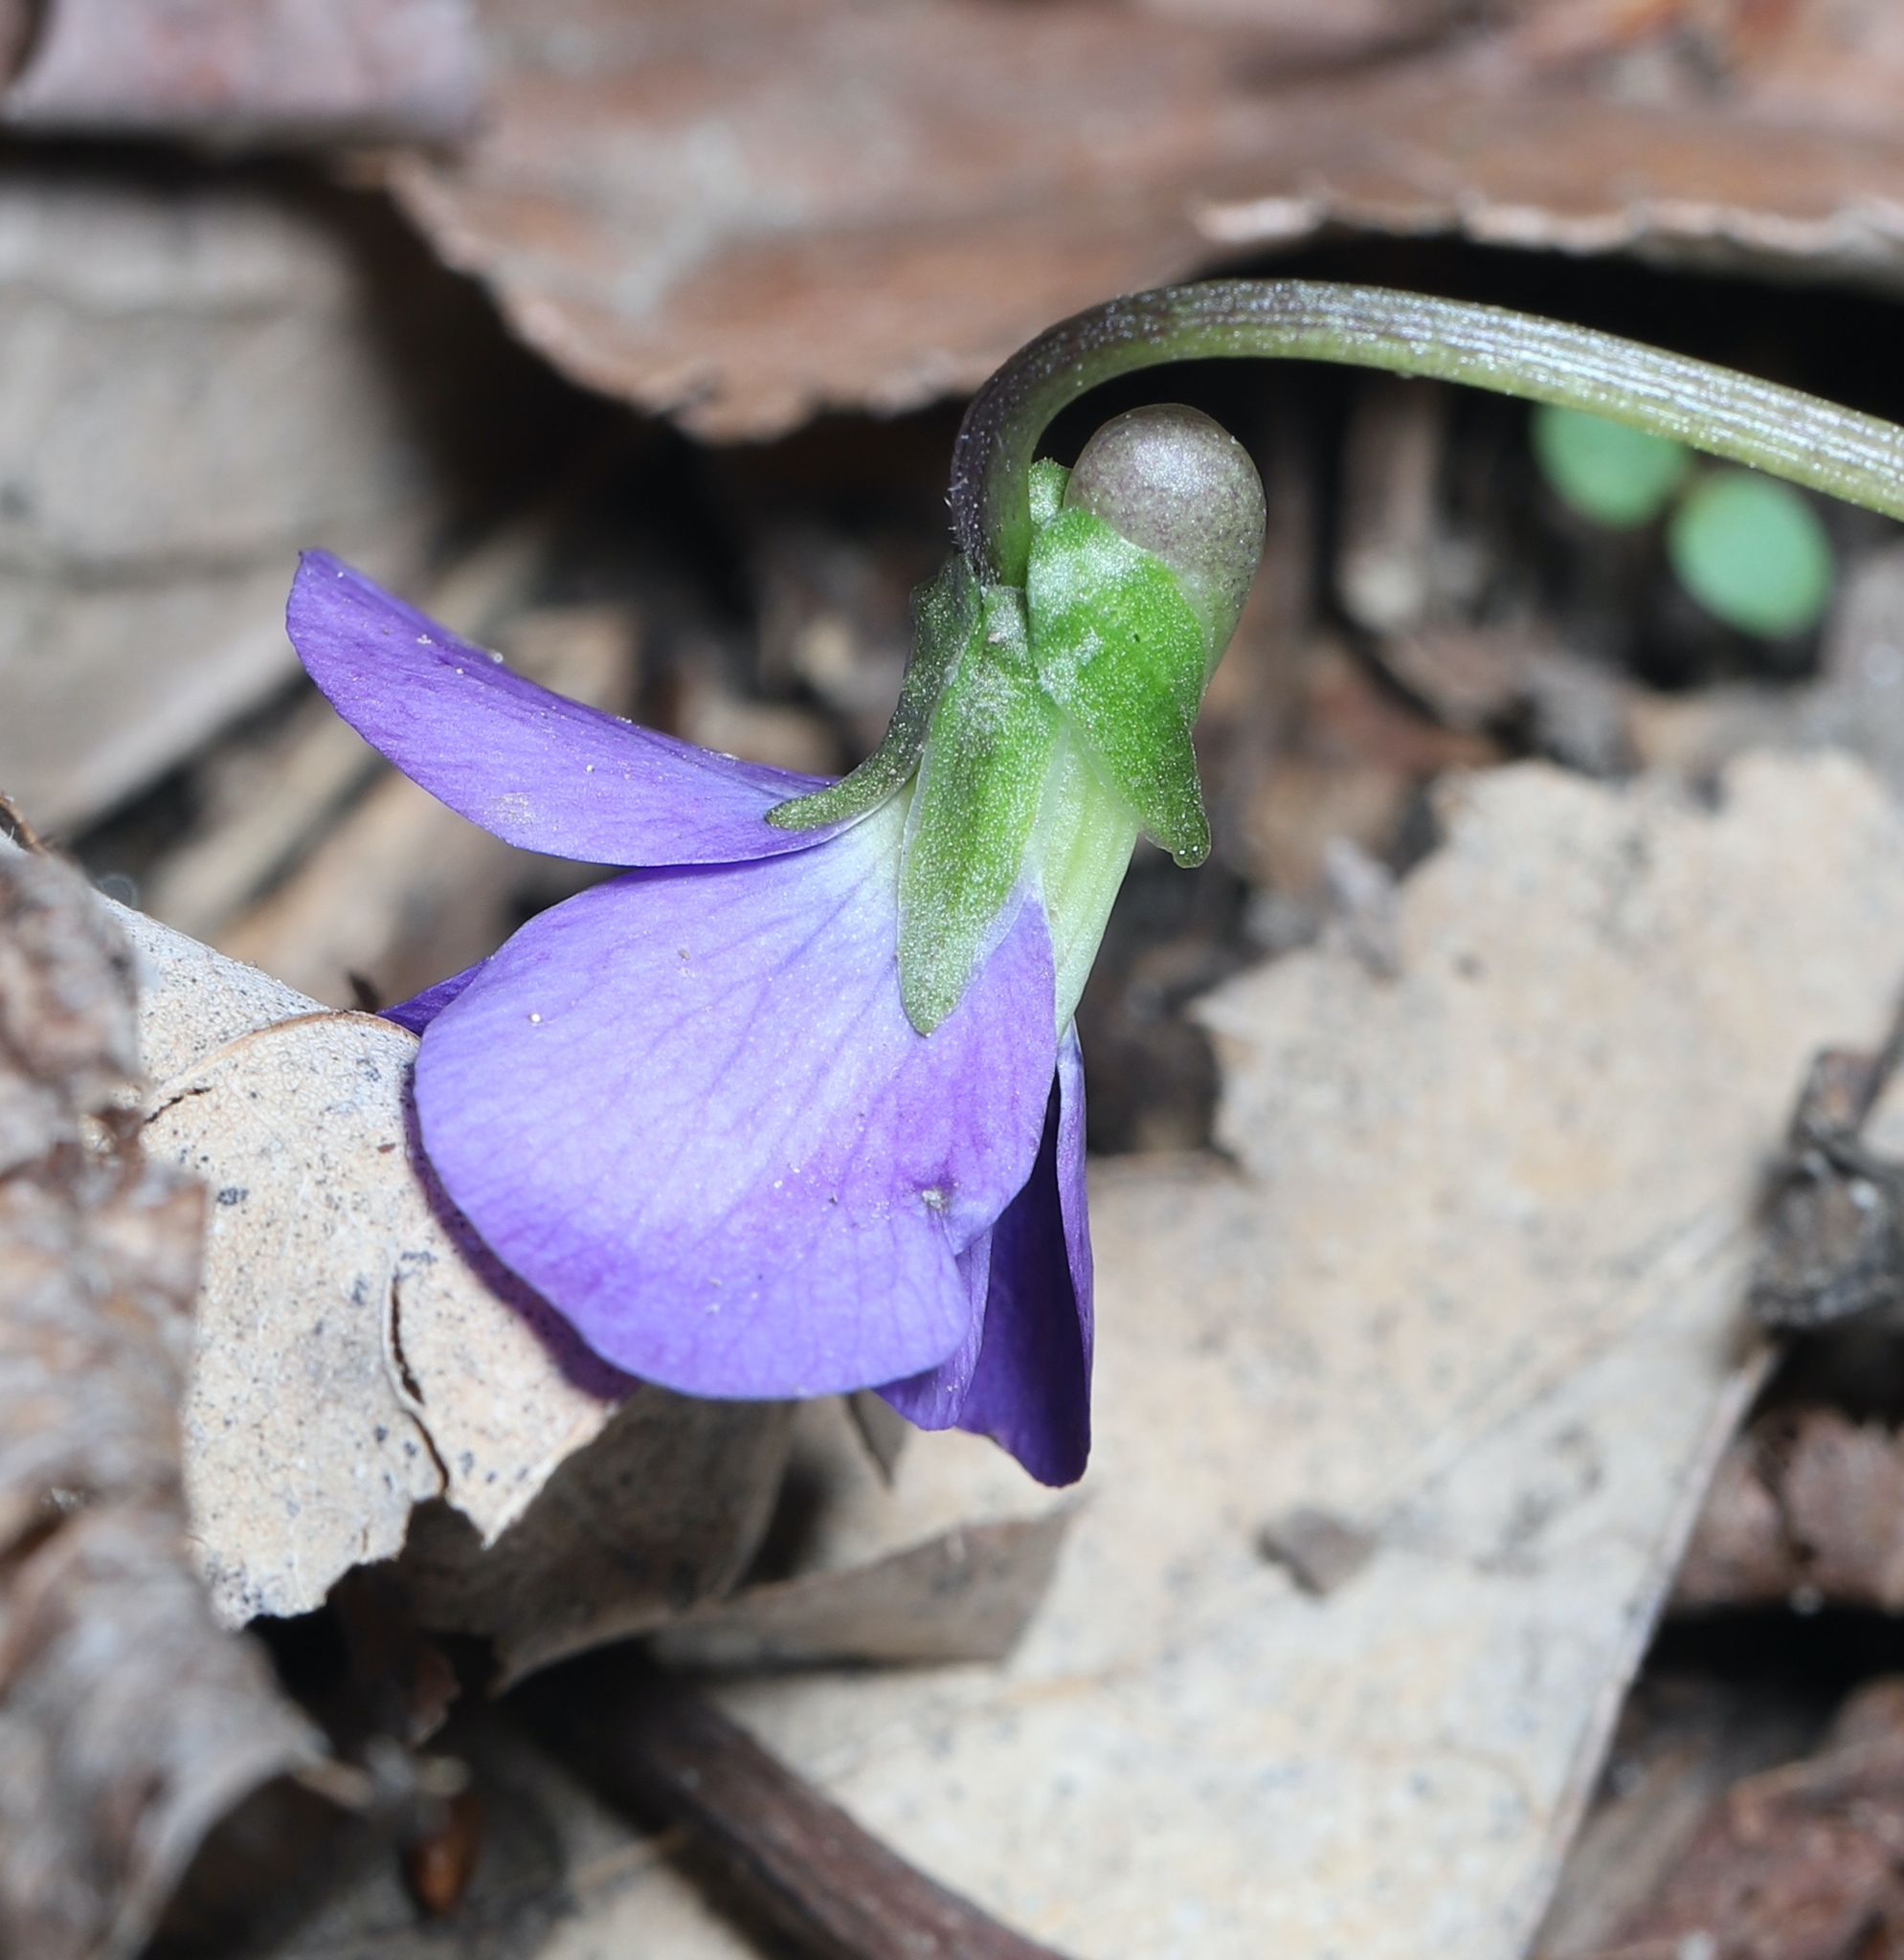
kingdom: Plantae
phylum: Tracheophyta
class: Magnoliopsida
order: Malpighiales
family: Violaceae
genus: Viola
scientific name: Viola sororia
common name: Dooryard violet
